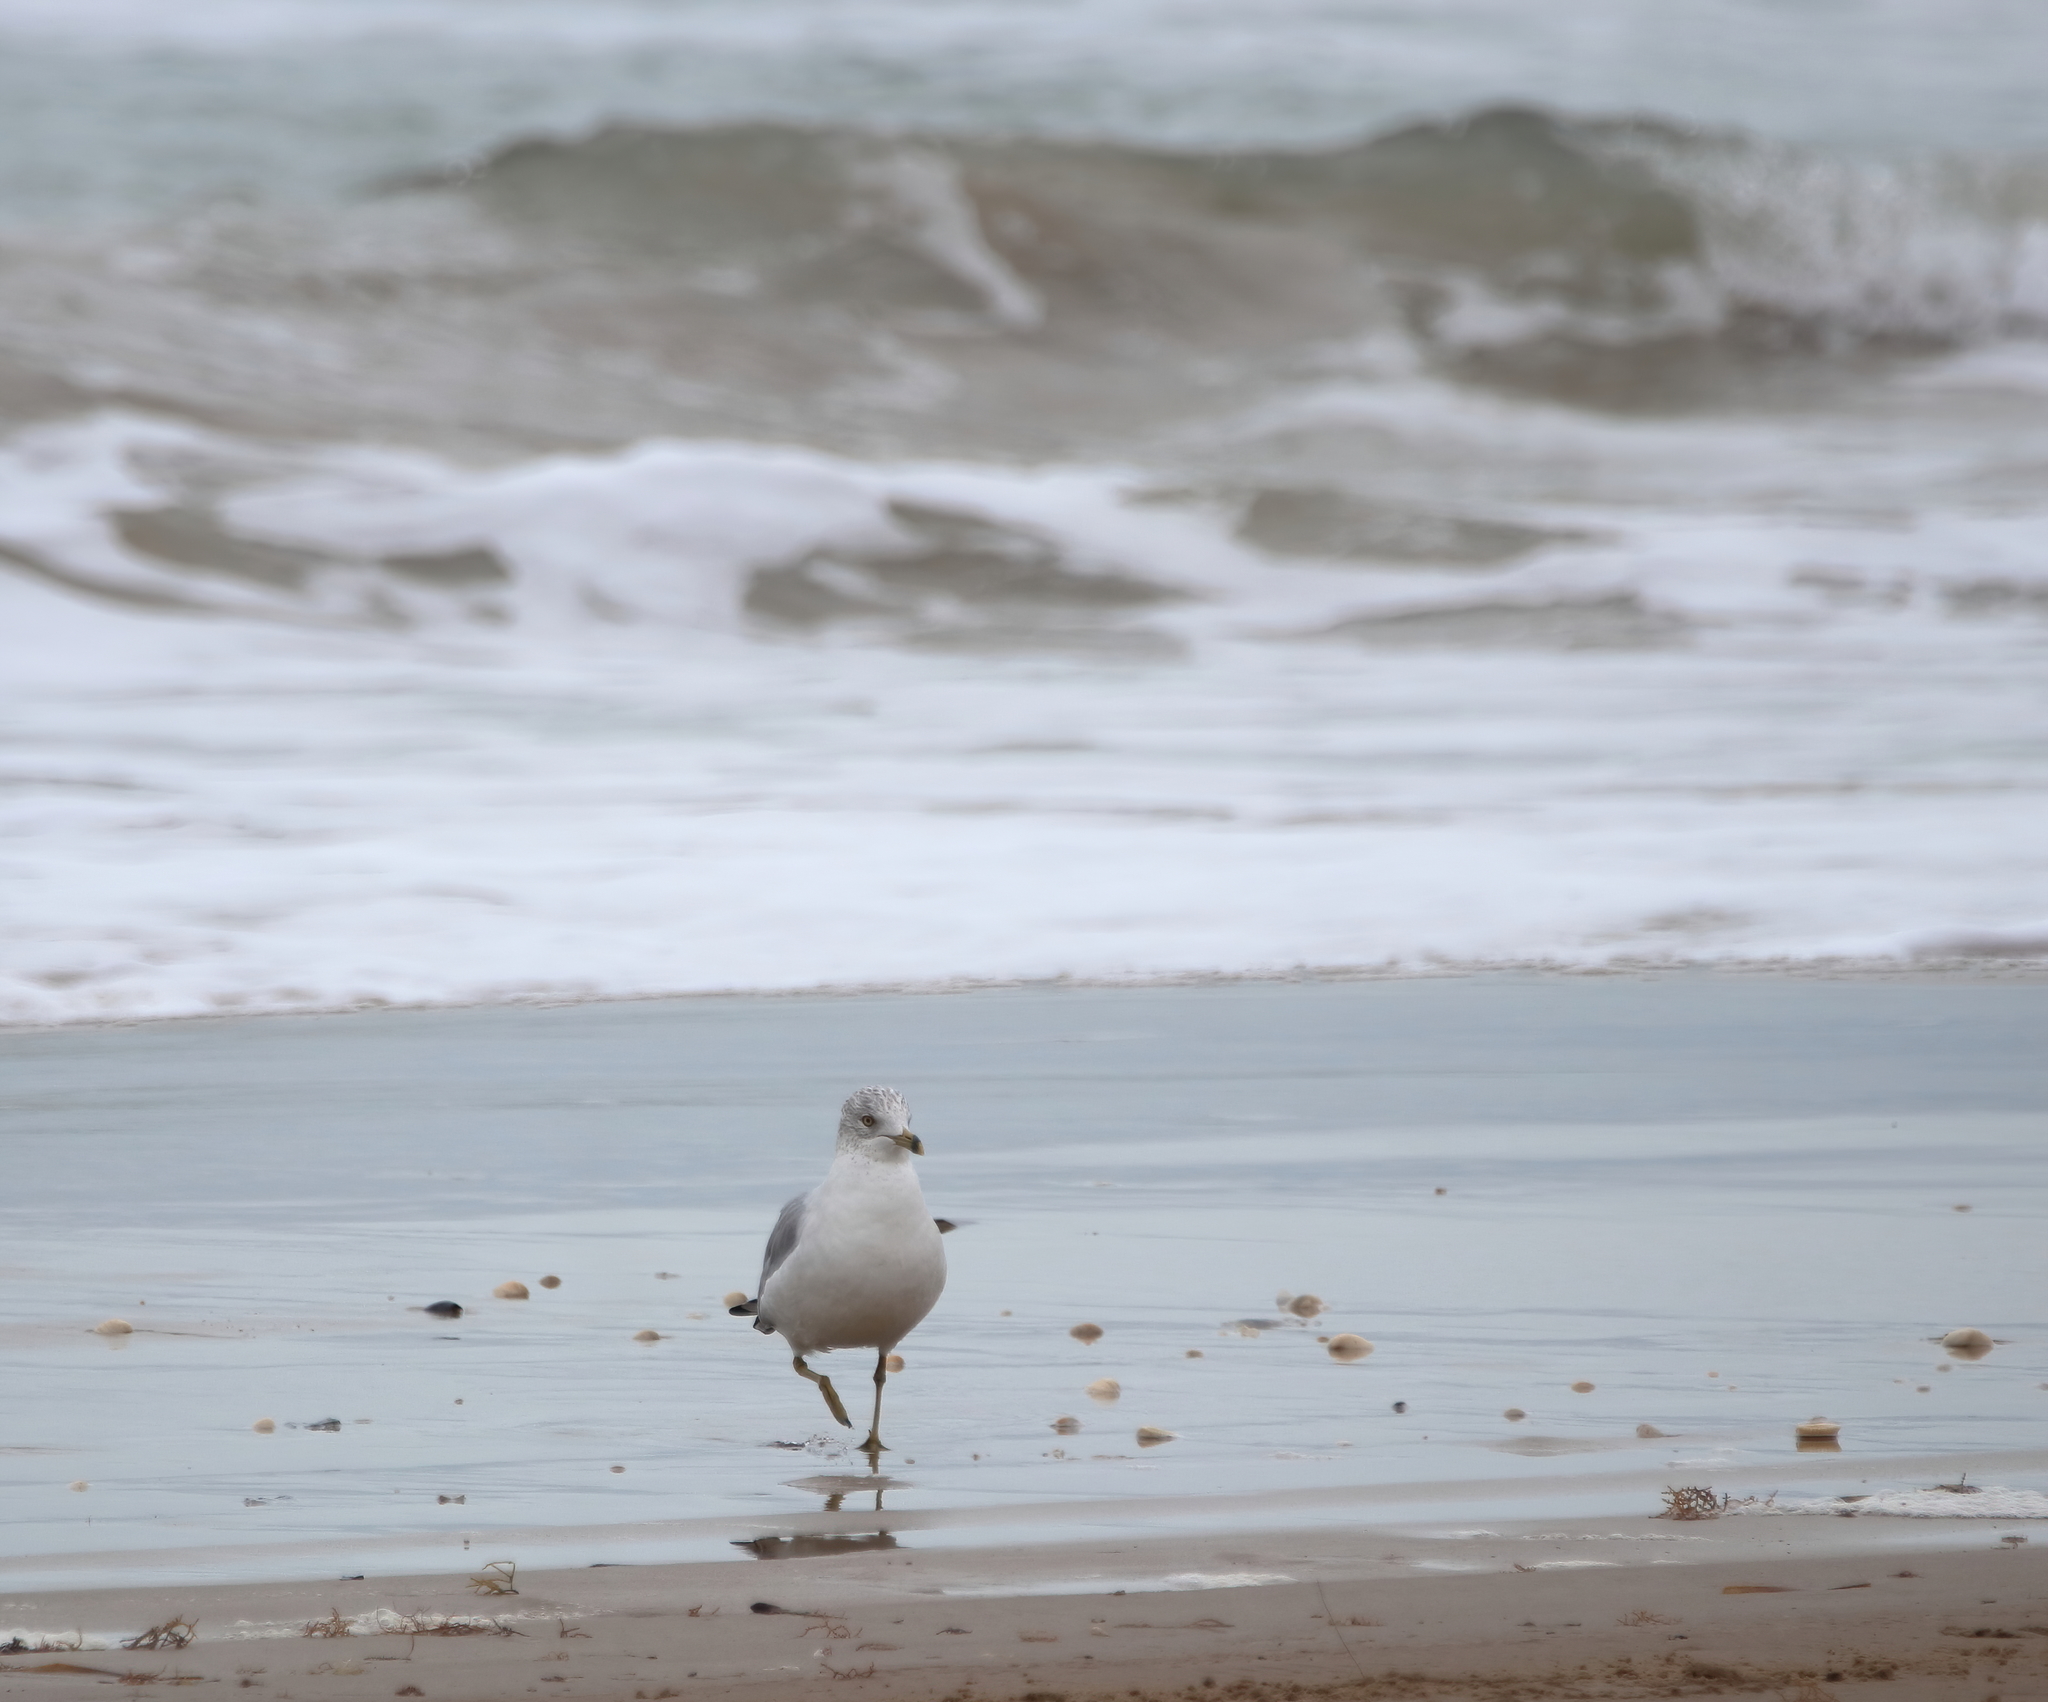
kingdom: Animalia
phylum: Chordata
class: Aves
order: Charadriiformes
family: Laridae
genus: Larus
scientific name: Larus delawarensis
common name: Ring-billed gull
